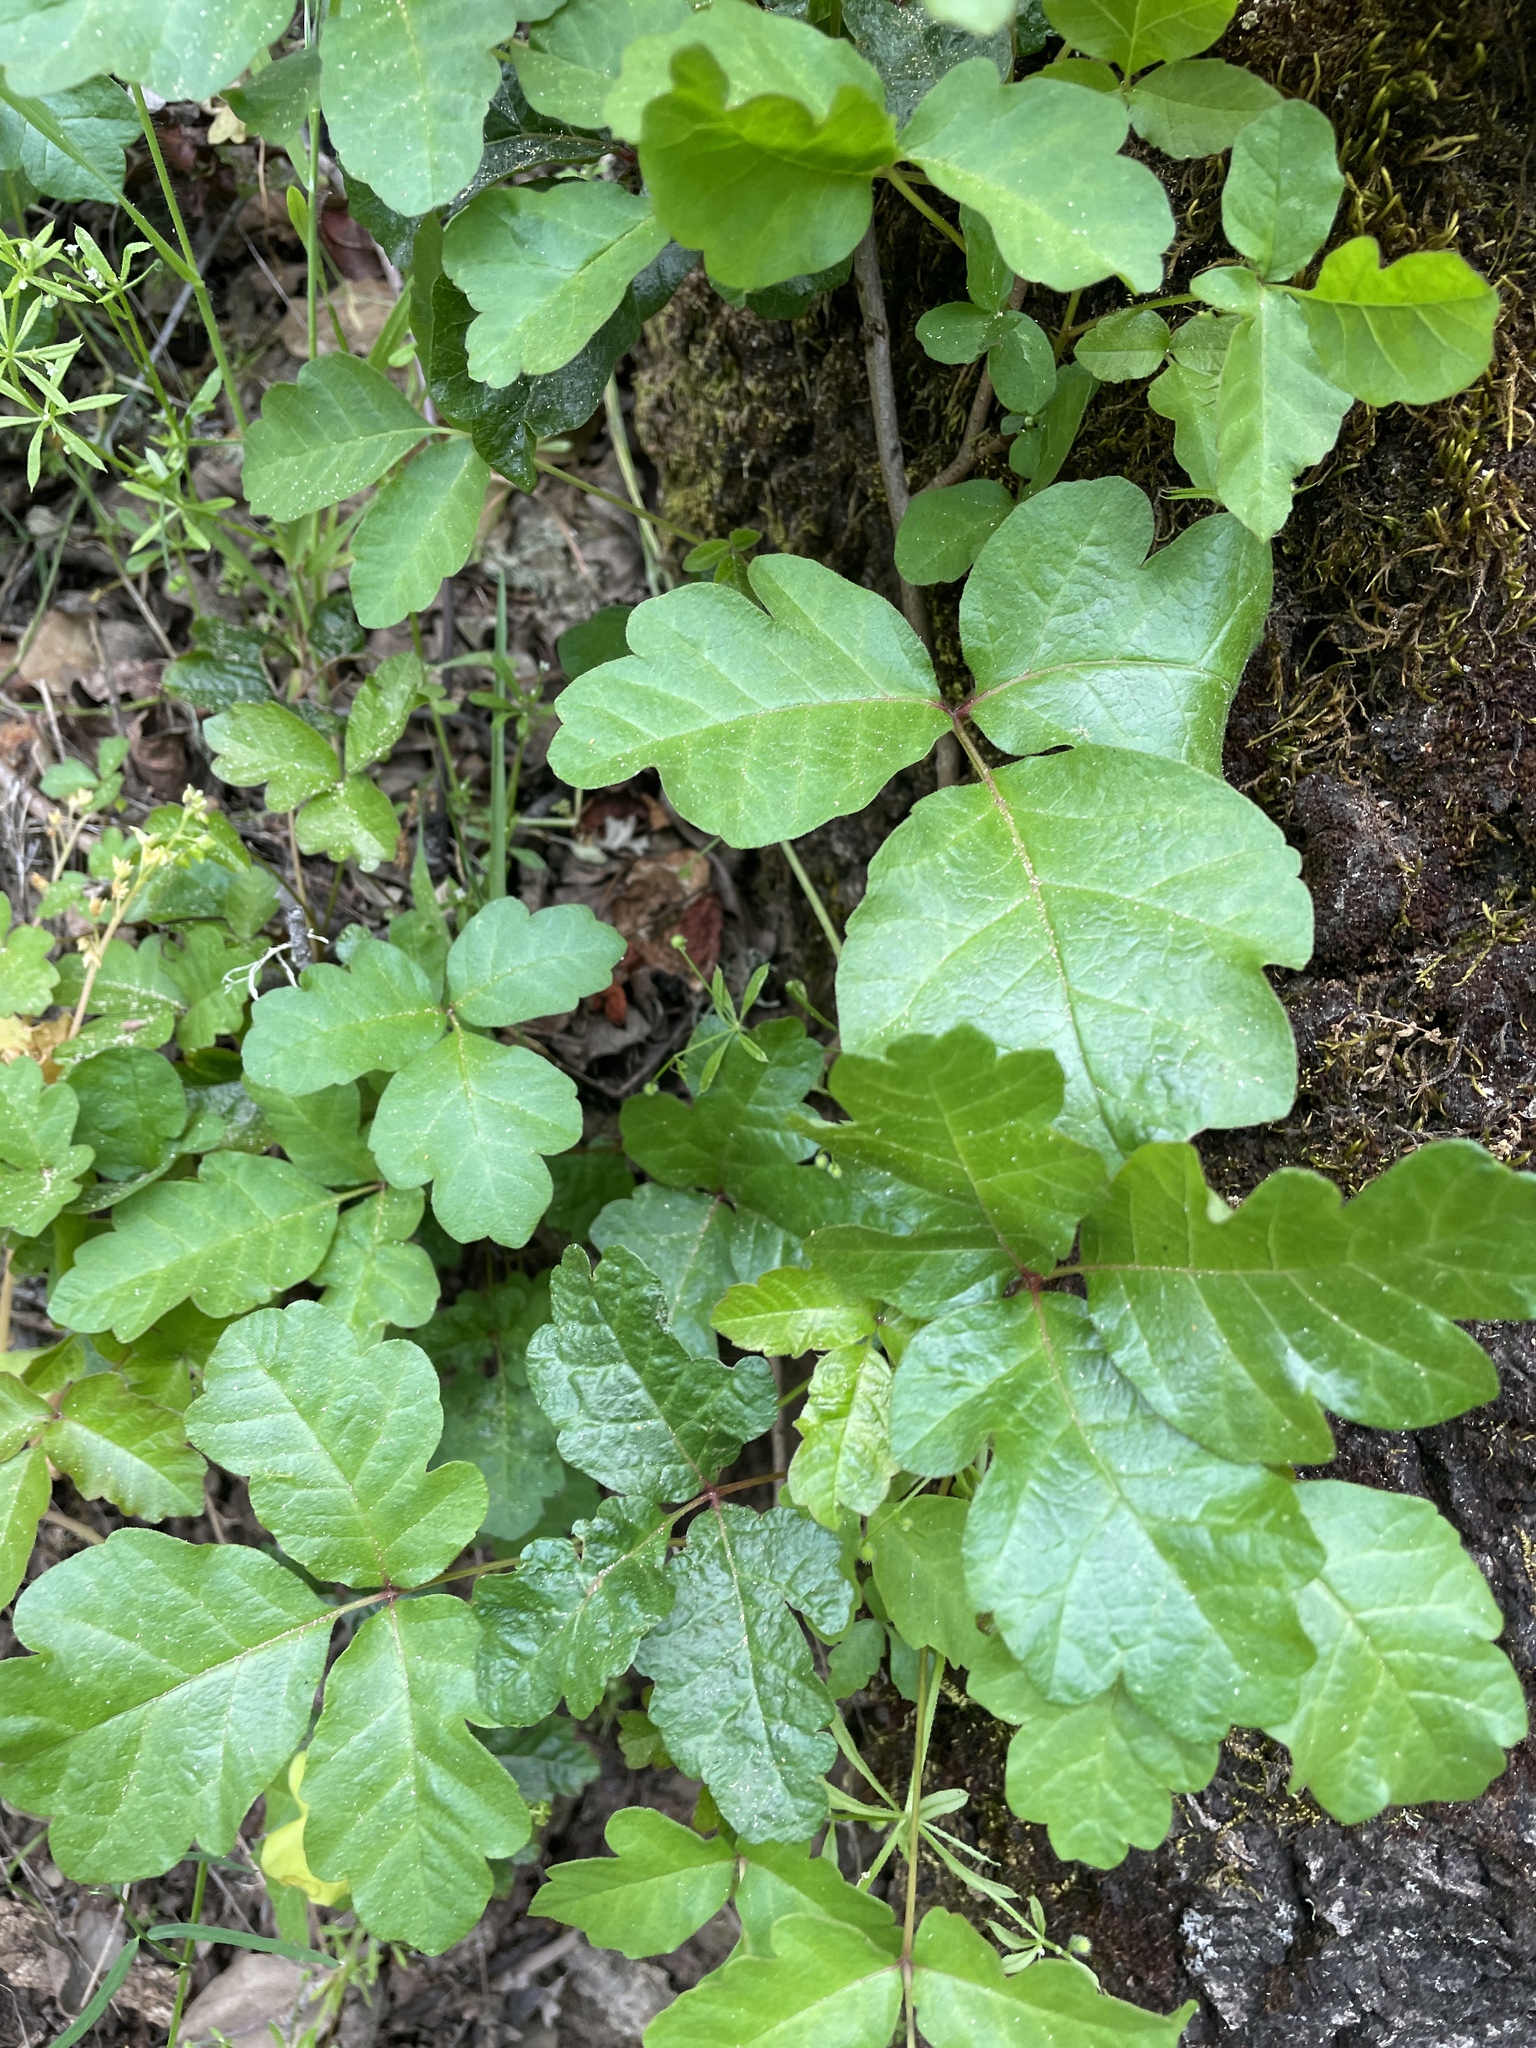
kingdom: Plantae
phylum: Tracheophyta
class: Magnoliopsida
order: Sapindales
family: Anacardiaceae
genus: Toxicodendron
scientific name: Toxicodendron diversilobum
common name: Pacific poison-oak
